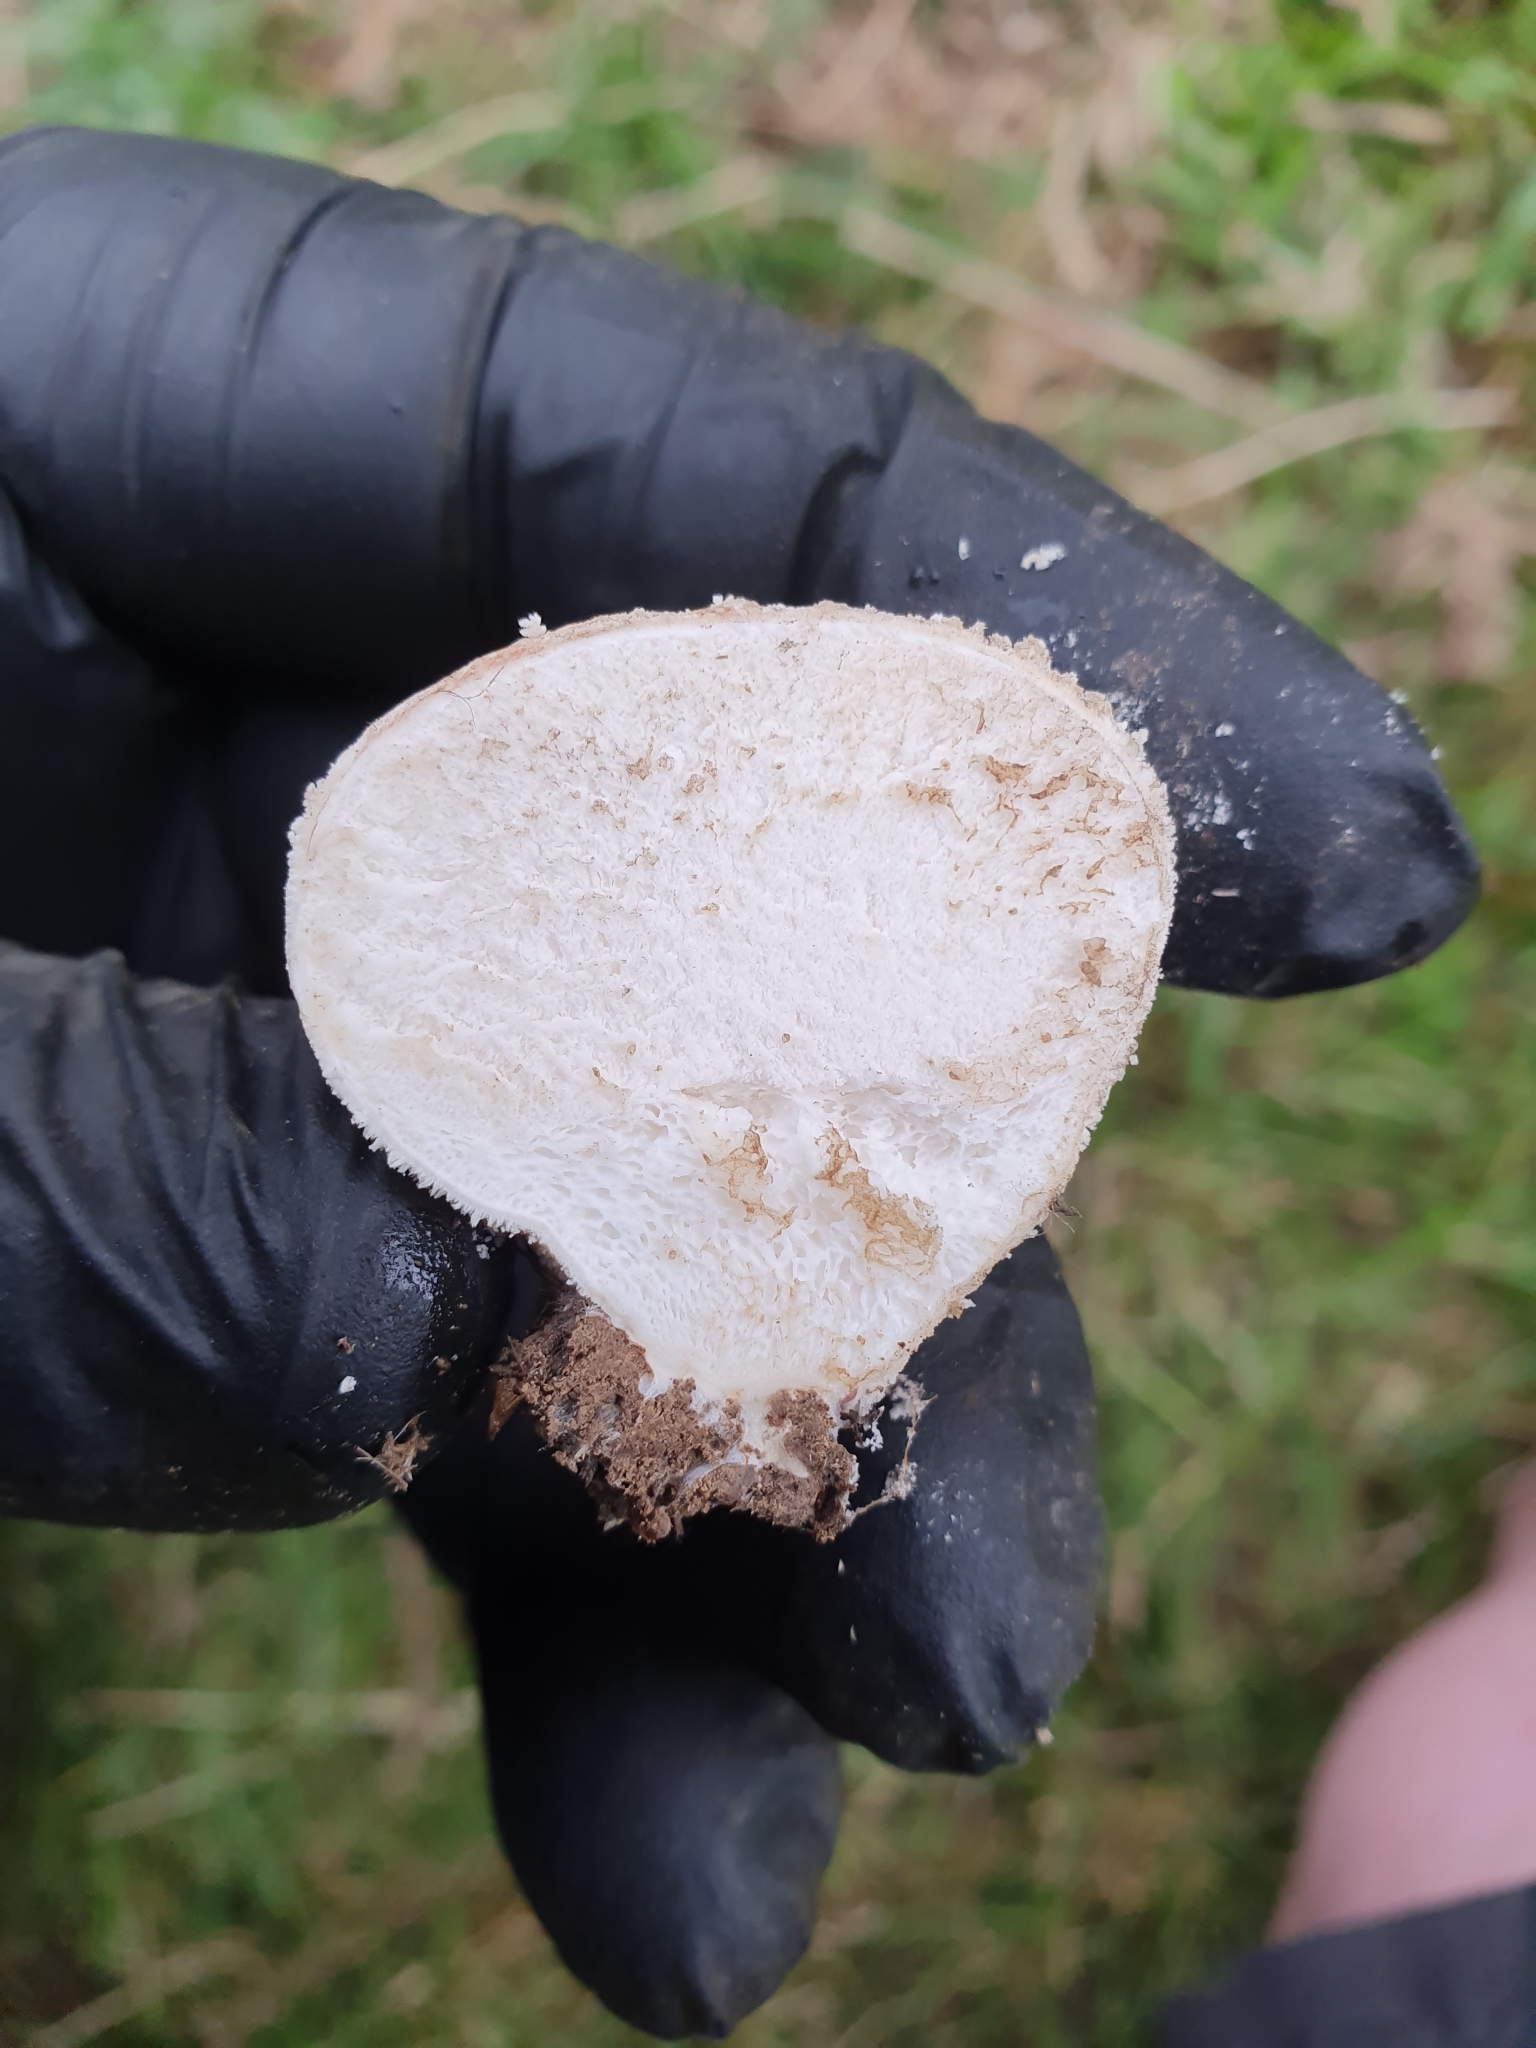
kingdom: Fungi
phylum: Basidiomycota
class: Agaricomycetes
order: Agaricales
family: Lycoperdaceae
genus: Lycoperdon
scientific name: Lycoperdon pratense
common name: Meadow puffball
